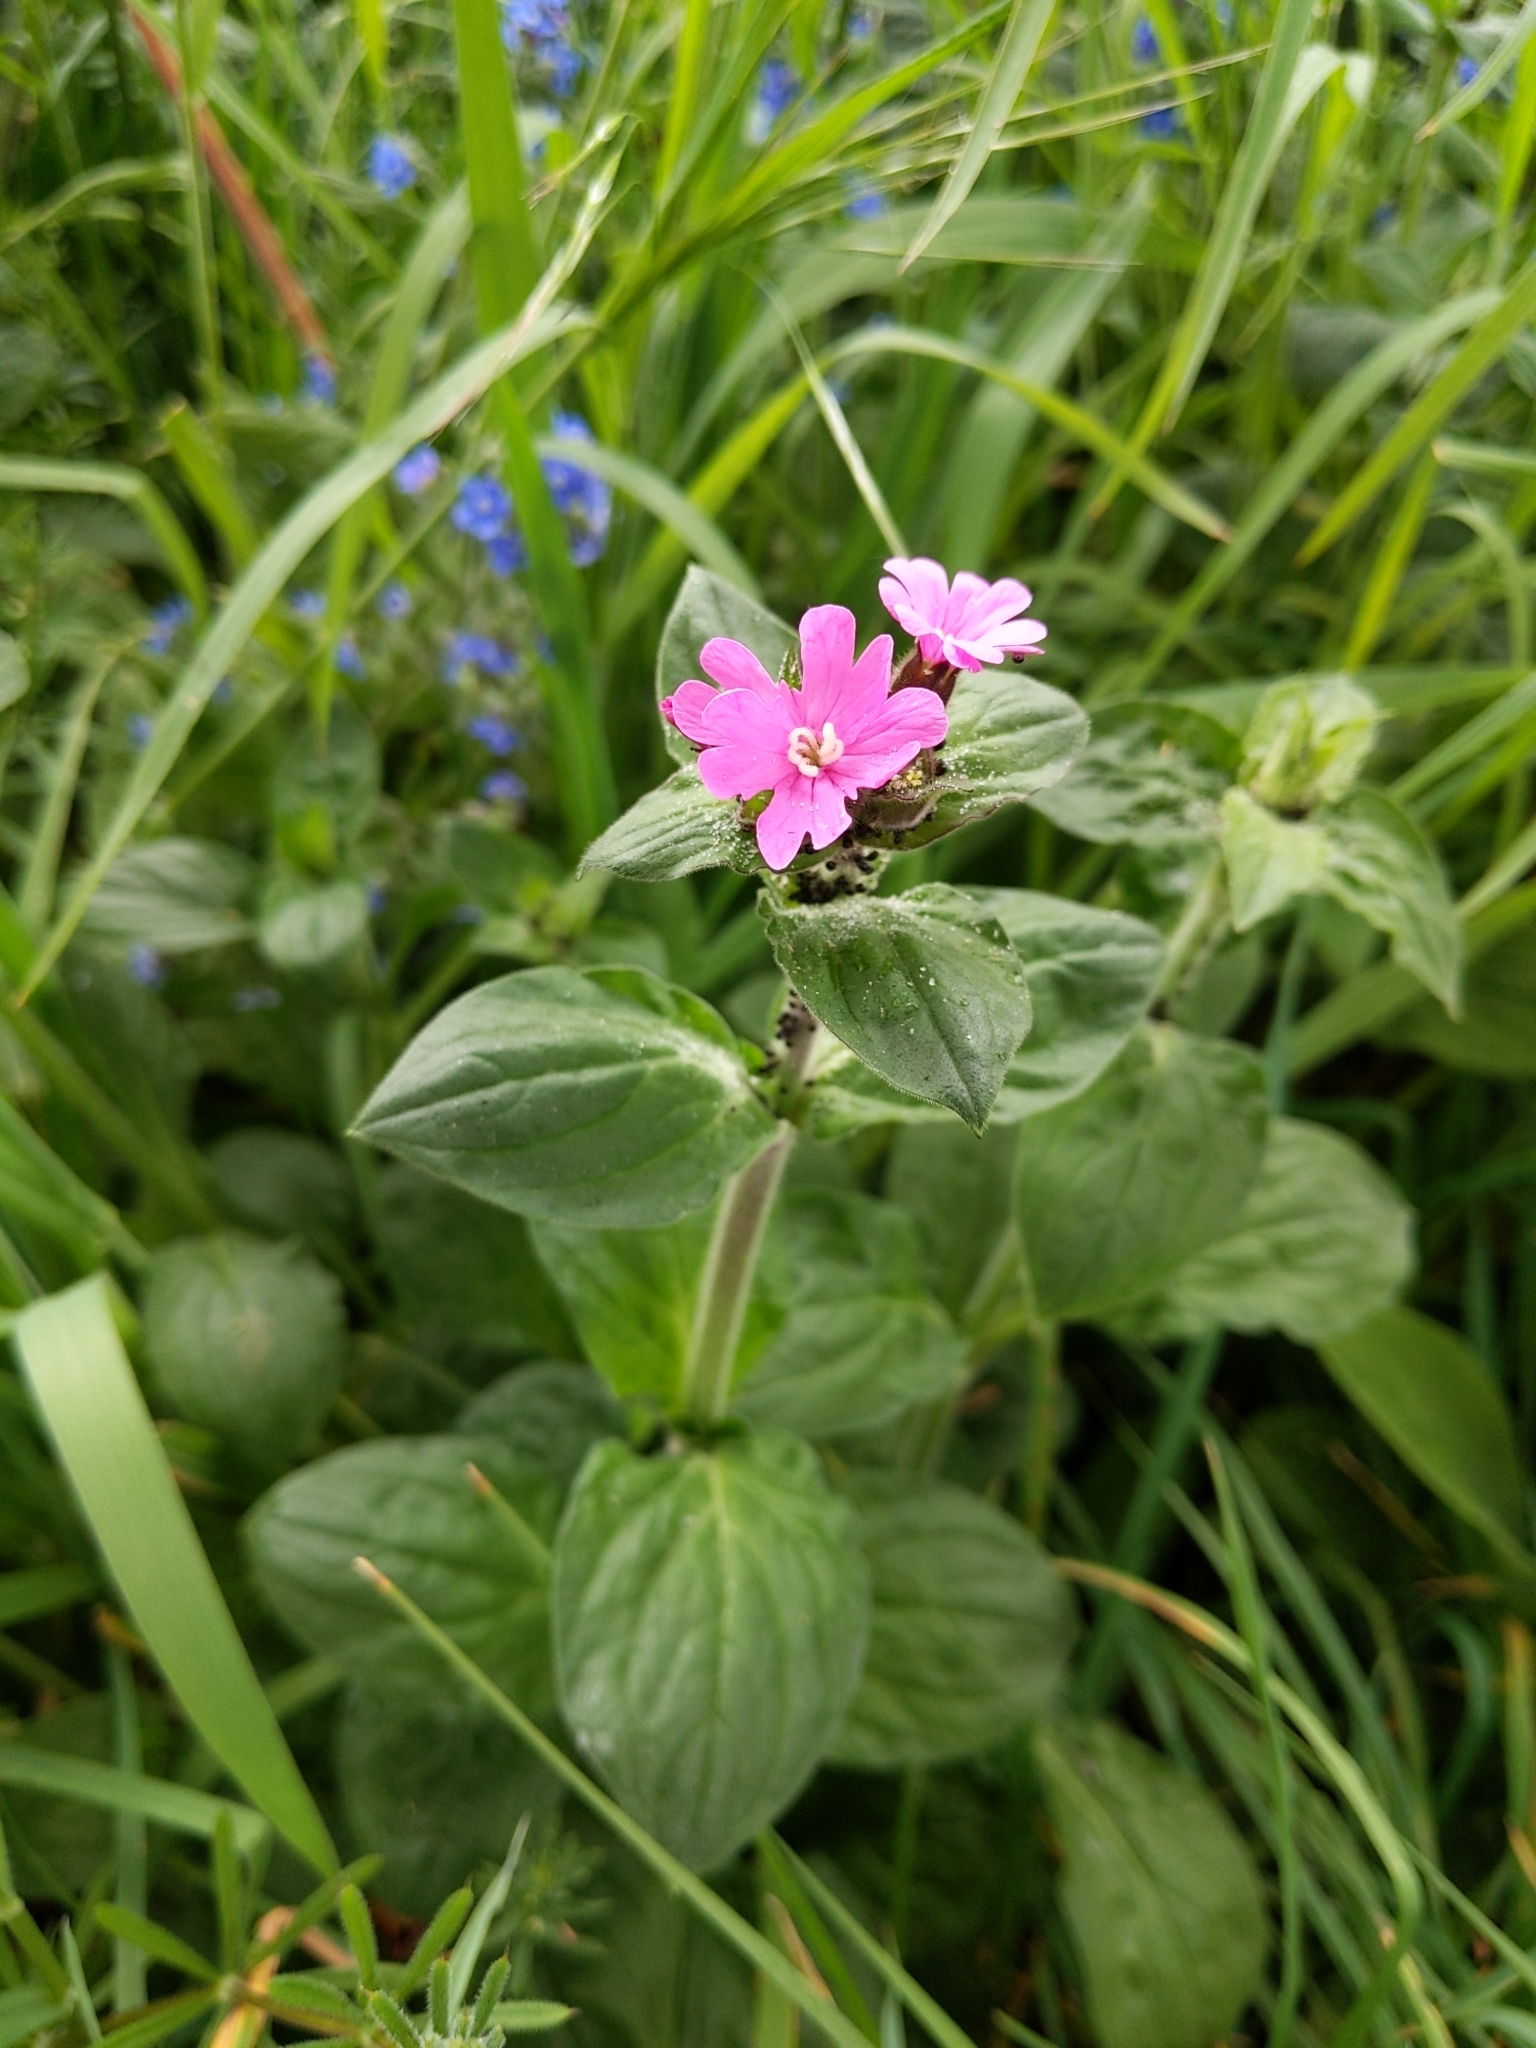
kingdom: Plantae
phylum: Tracheophyta
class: Magnoliopsida
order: Caryophyllales
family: Caryophyllaceae
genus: Silene
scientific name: Silene dioica
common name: Red campion
